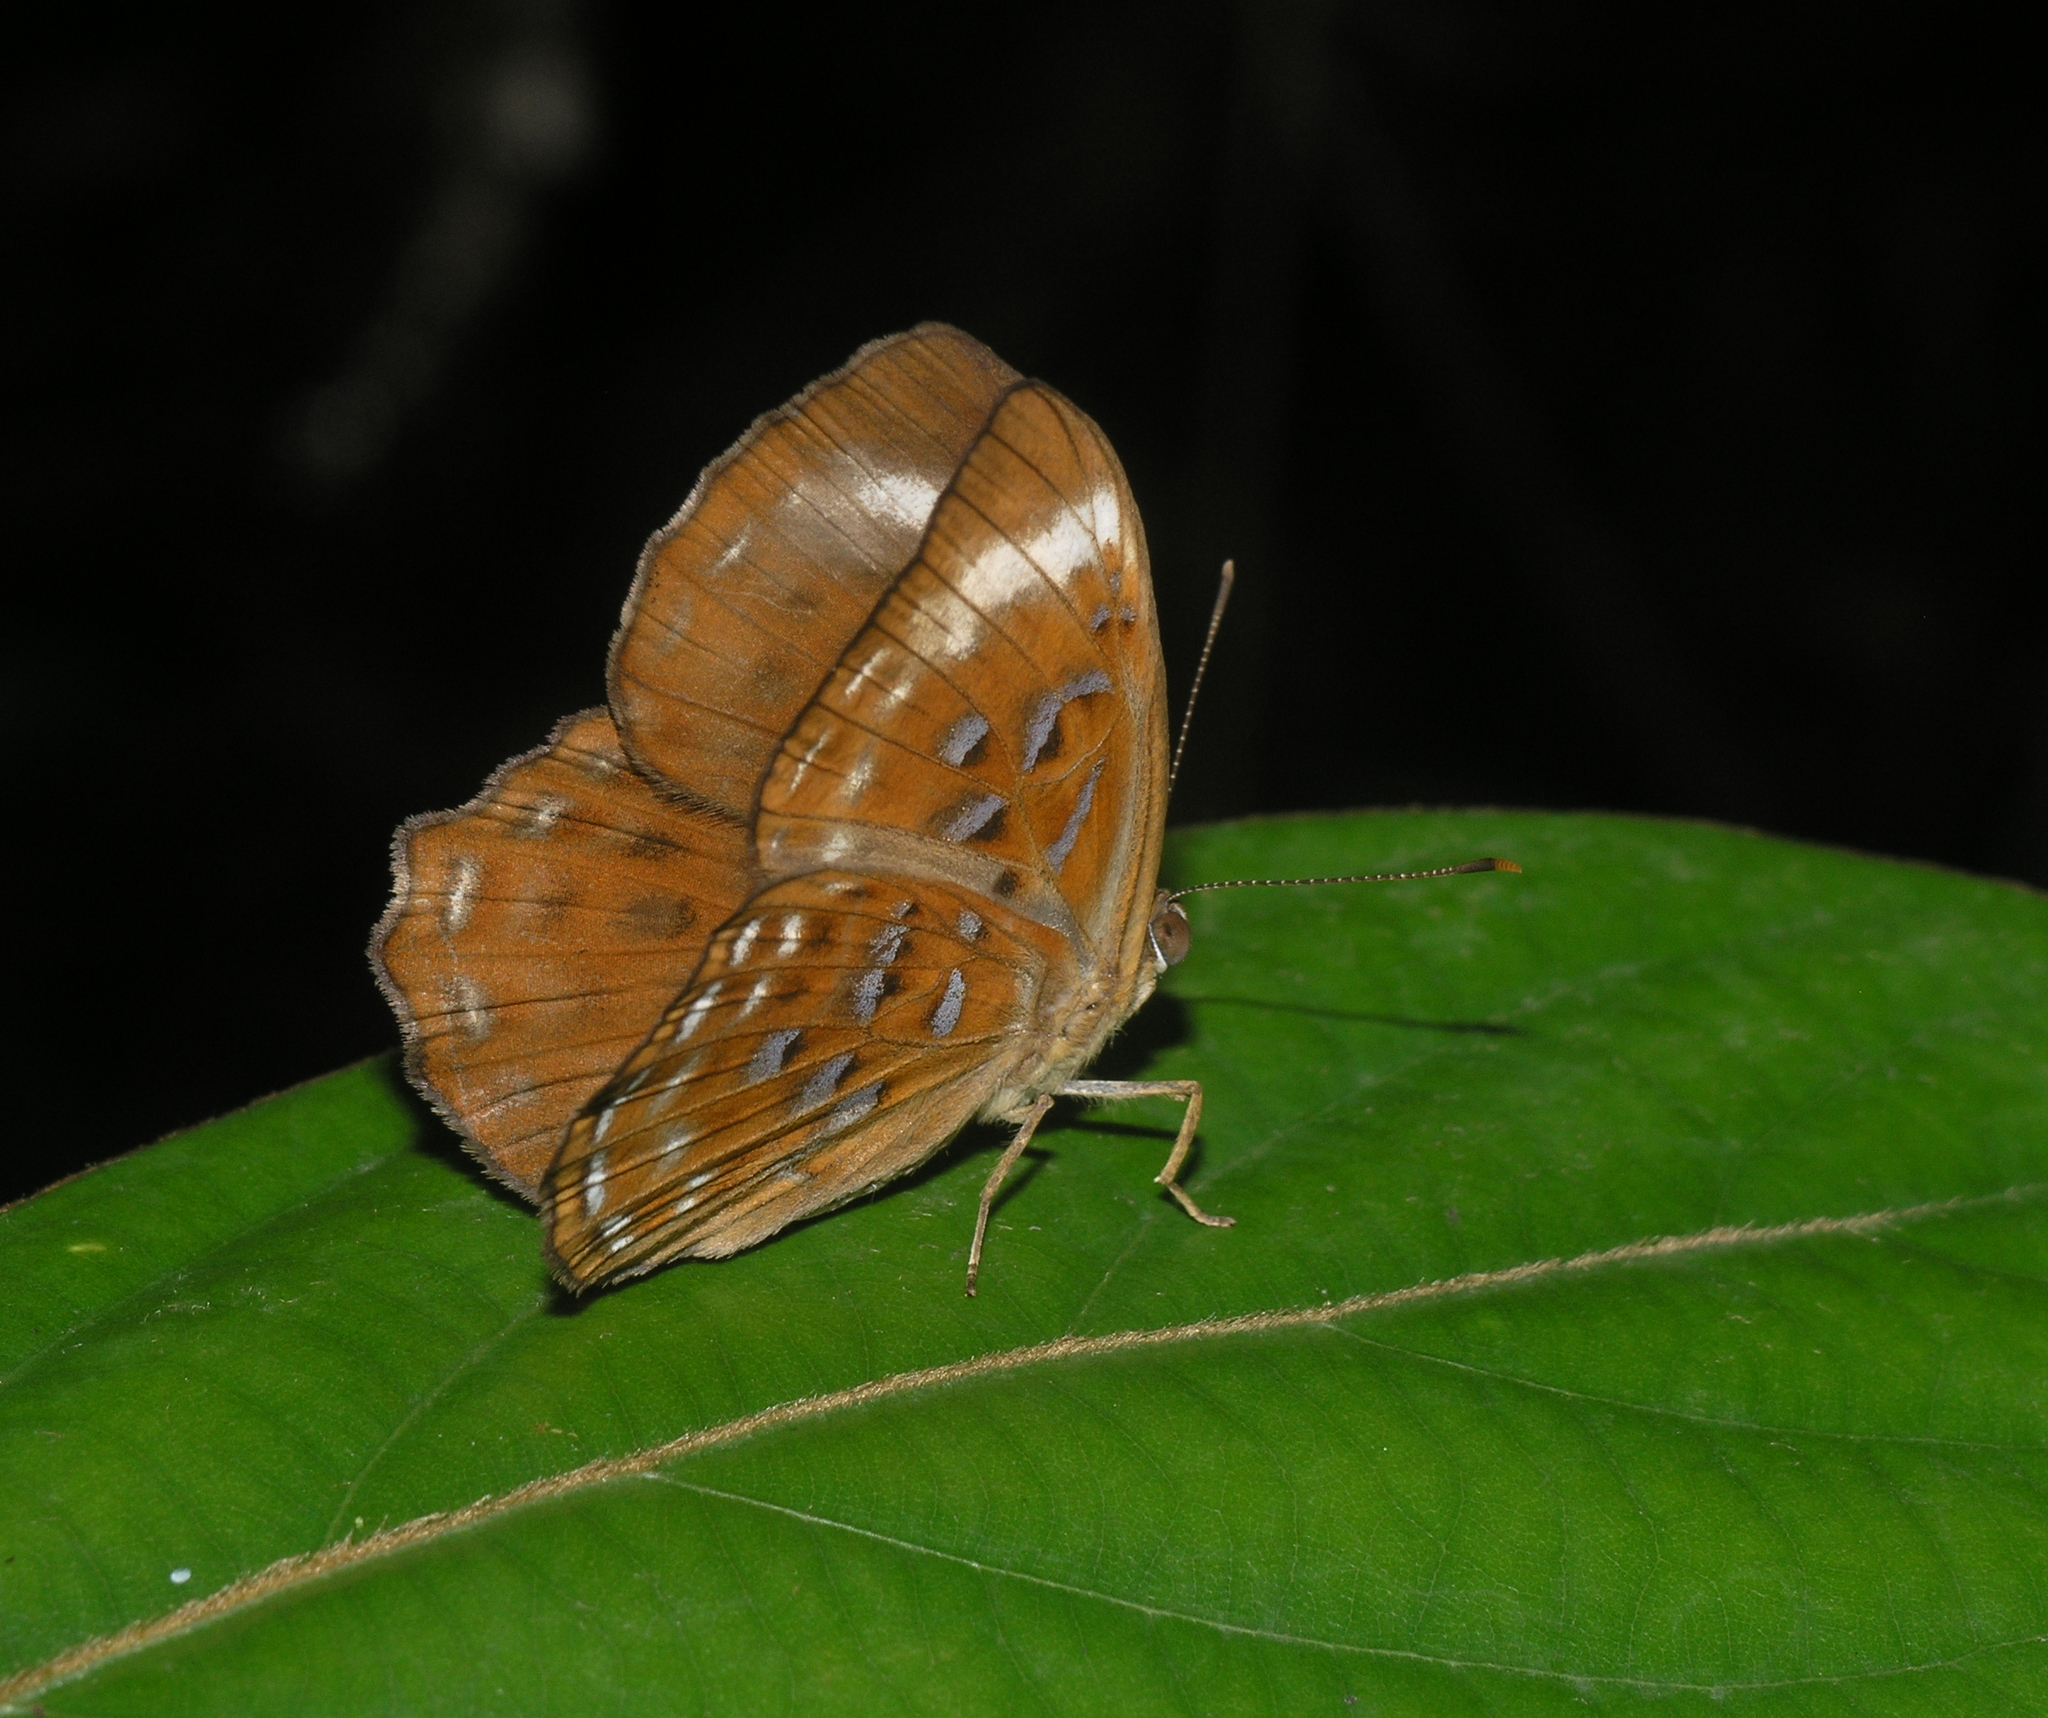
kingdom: Animalia
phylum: Arthropoda
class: Insecta
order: Lepidoptera
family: Erebidae
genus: Dysschema
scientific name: Dysschema
